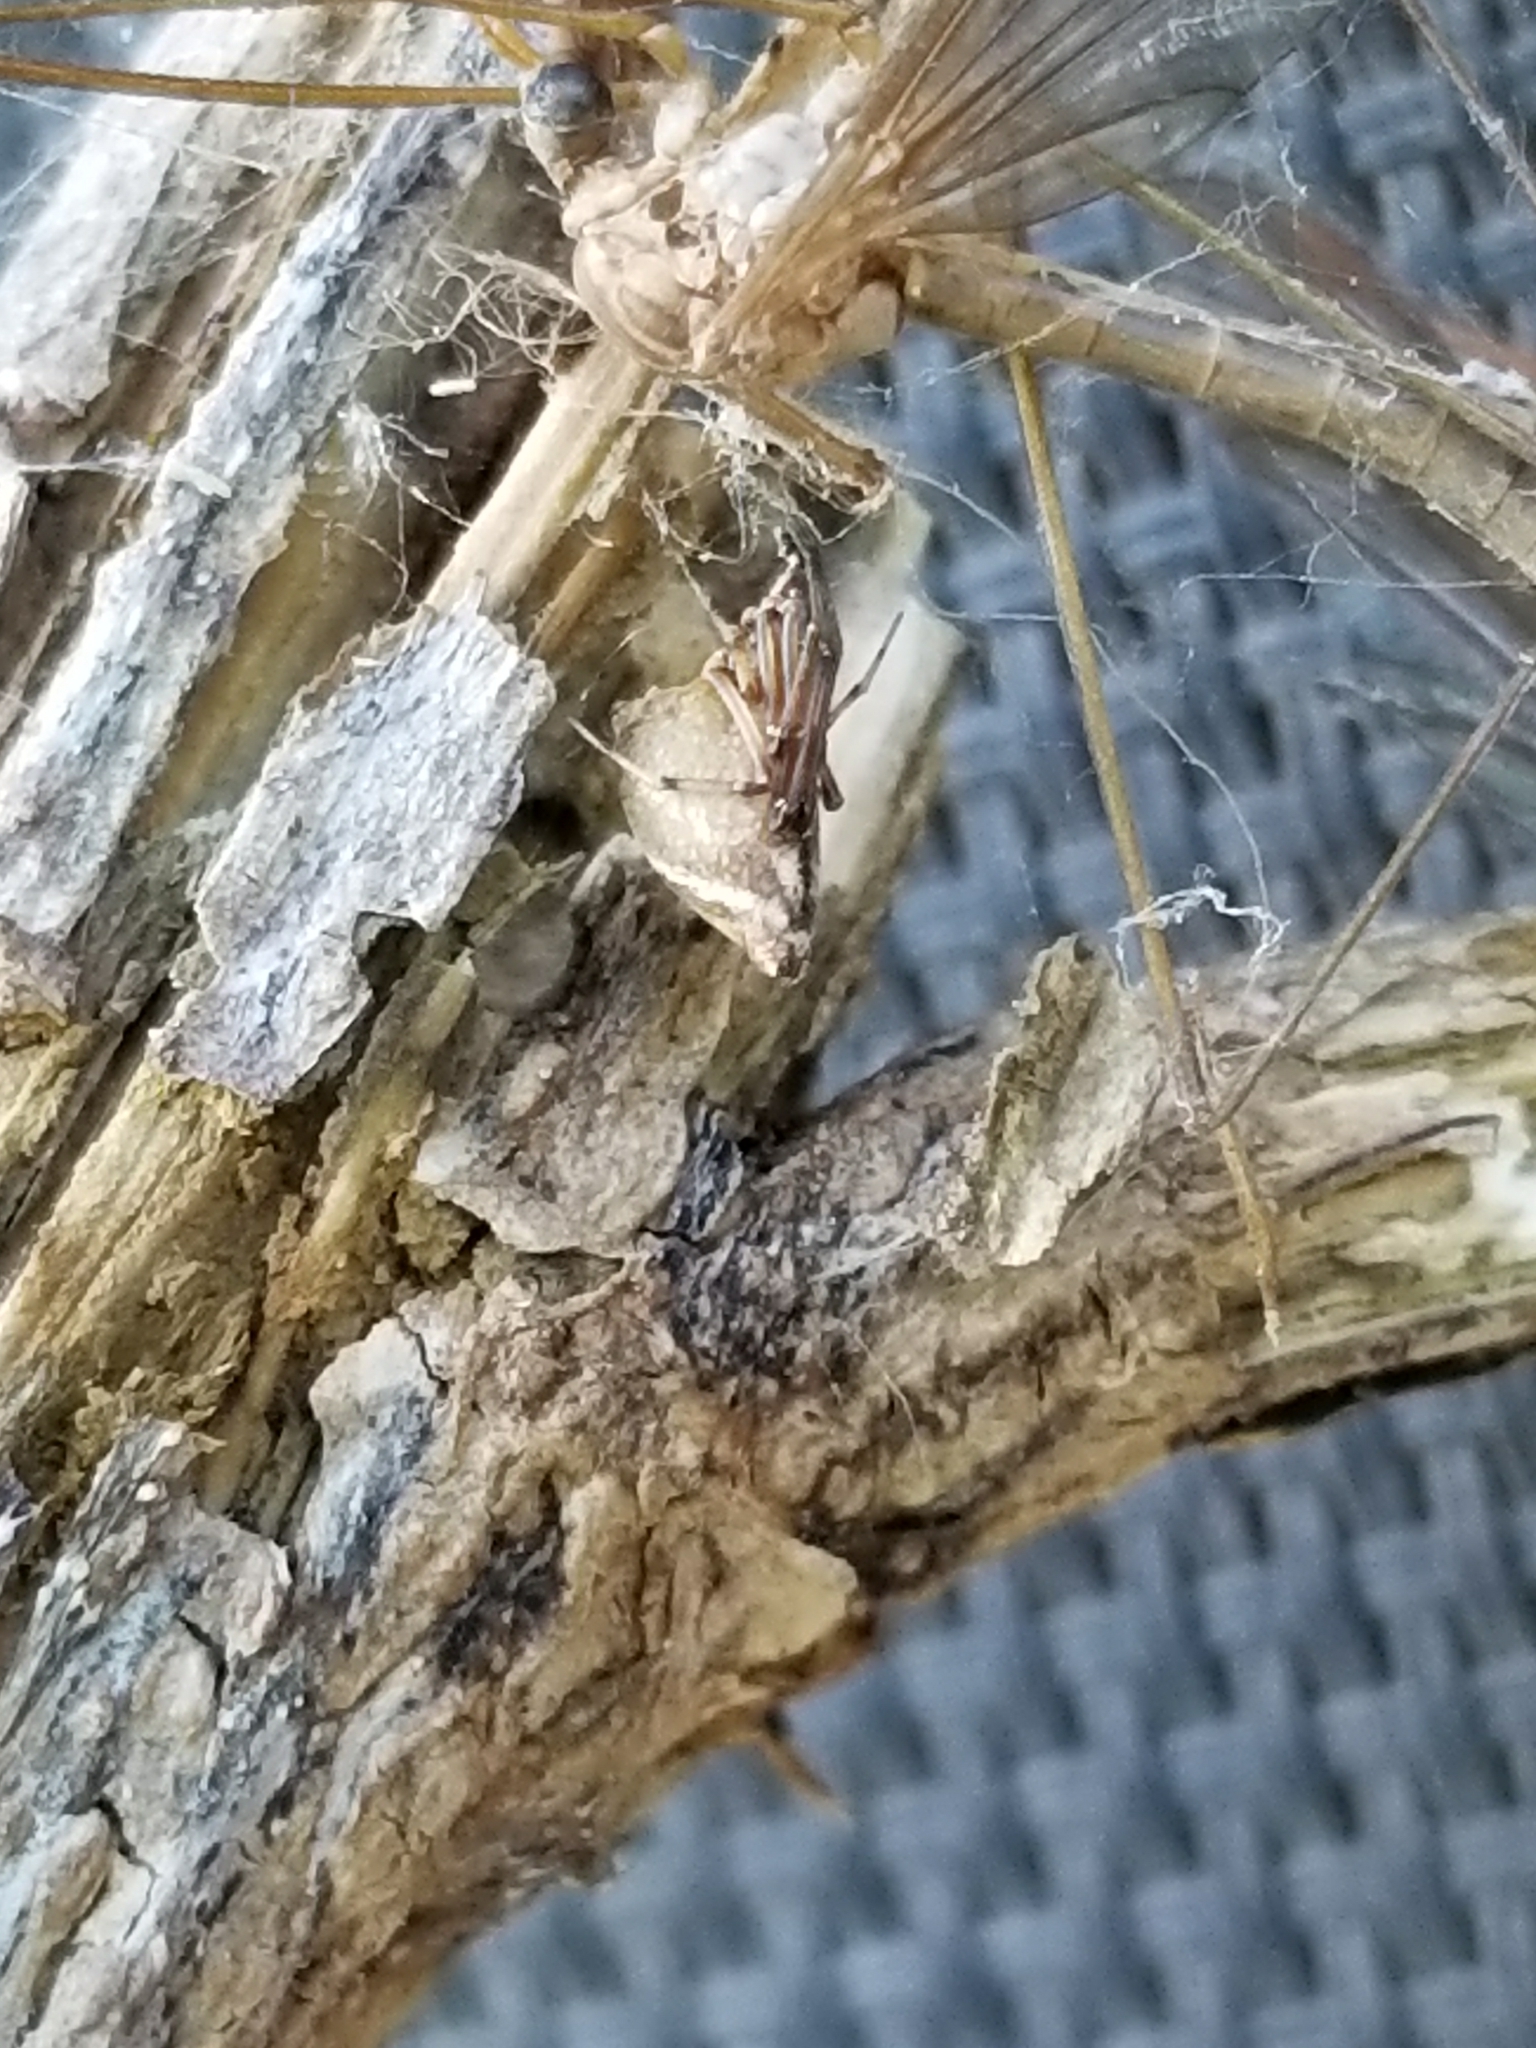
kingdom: Animalia
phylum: Arthropoda
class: Arachnida
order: Araneae
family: Theridiidae
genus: Neospintharus
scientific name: Neospintharus furcatus
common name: Cobweb spiders
